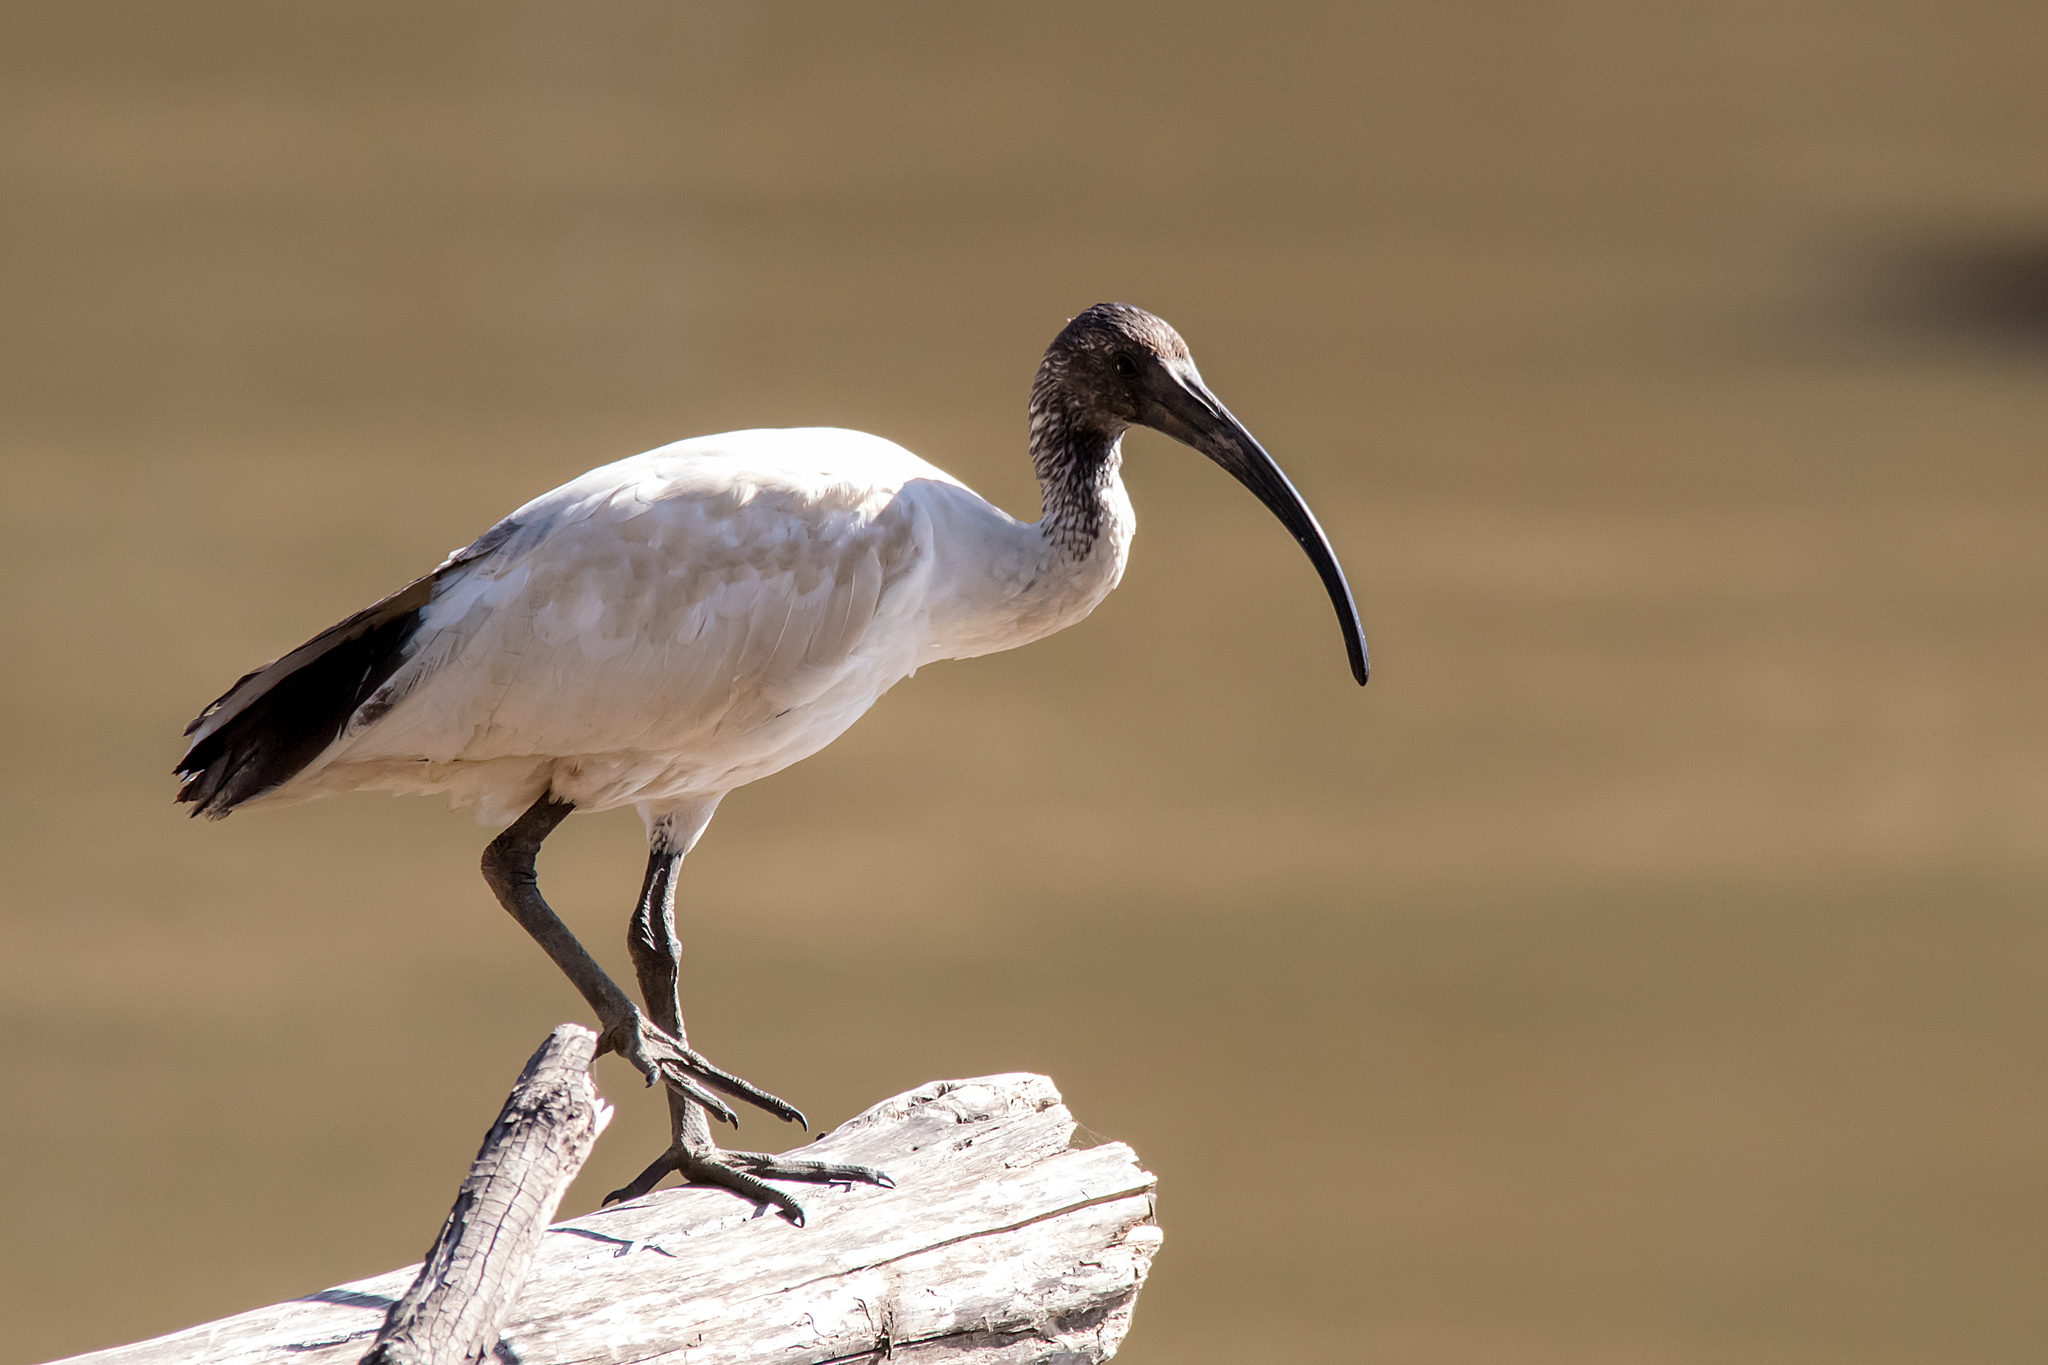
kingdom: Animalia
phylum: Chordata
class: Aves
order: Pelecaniformes
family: Threskiornithidae
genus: Threskiornis
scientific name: Threskiornis molucca
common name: Australian white ibis
